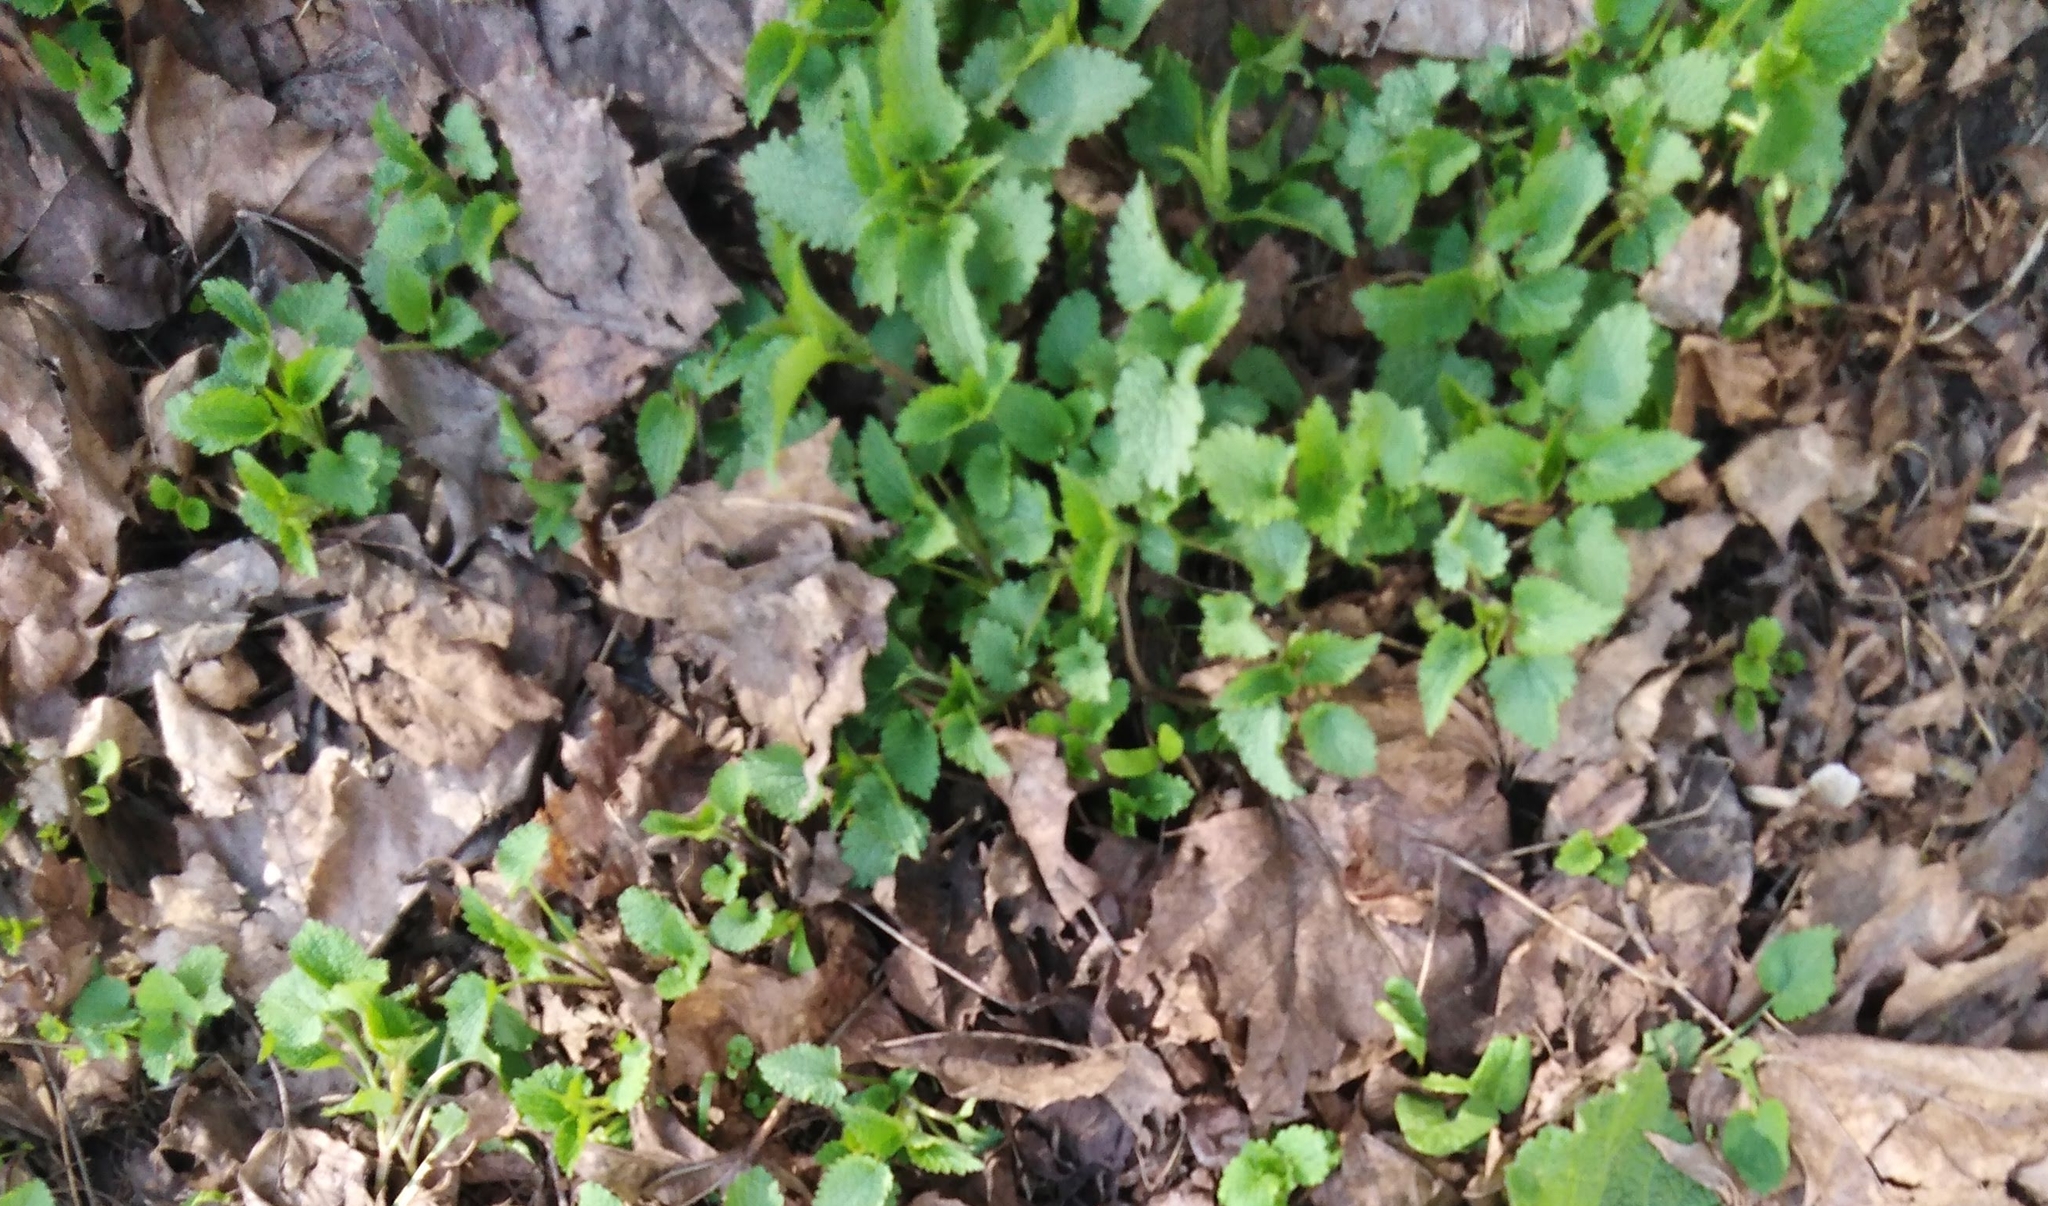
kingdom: Plantae
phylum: Tracheophyta
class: Magnoliopsida
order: Rosales
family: Urticaceae
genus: Urtica
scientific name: Urtica dioica
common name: Common nettle
